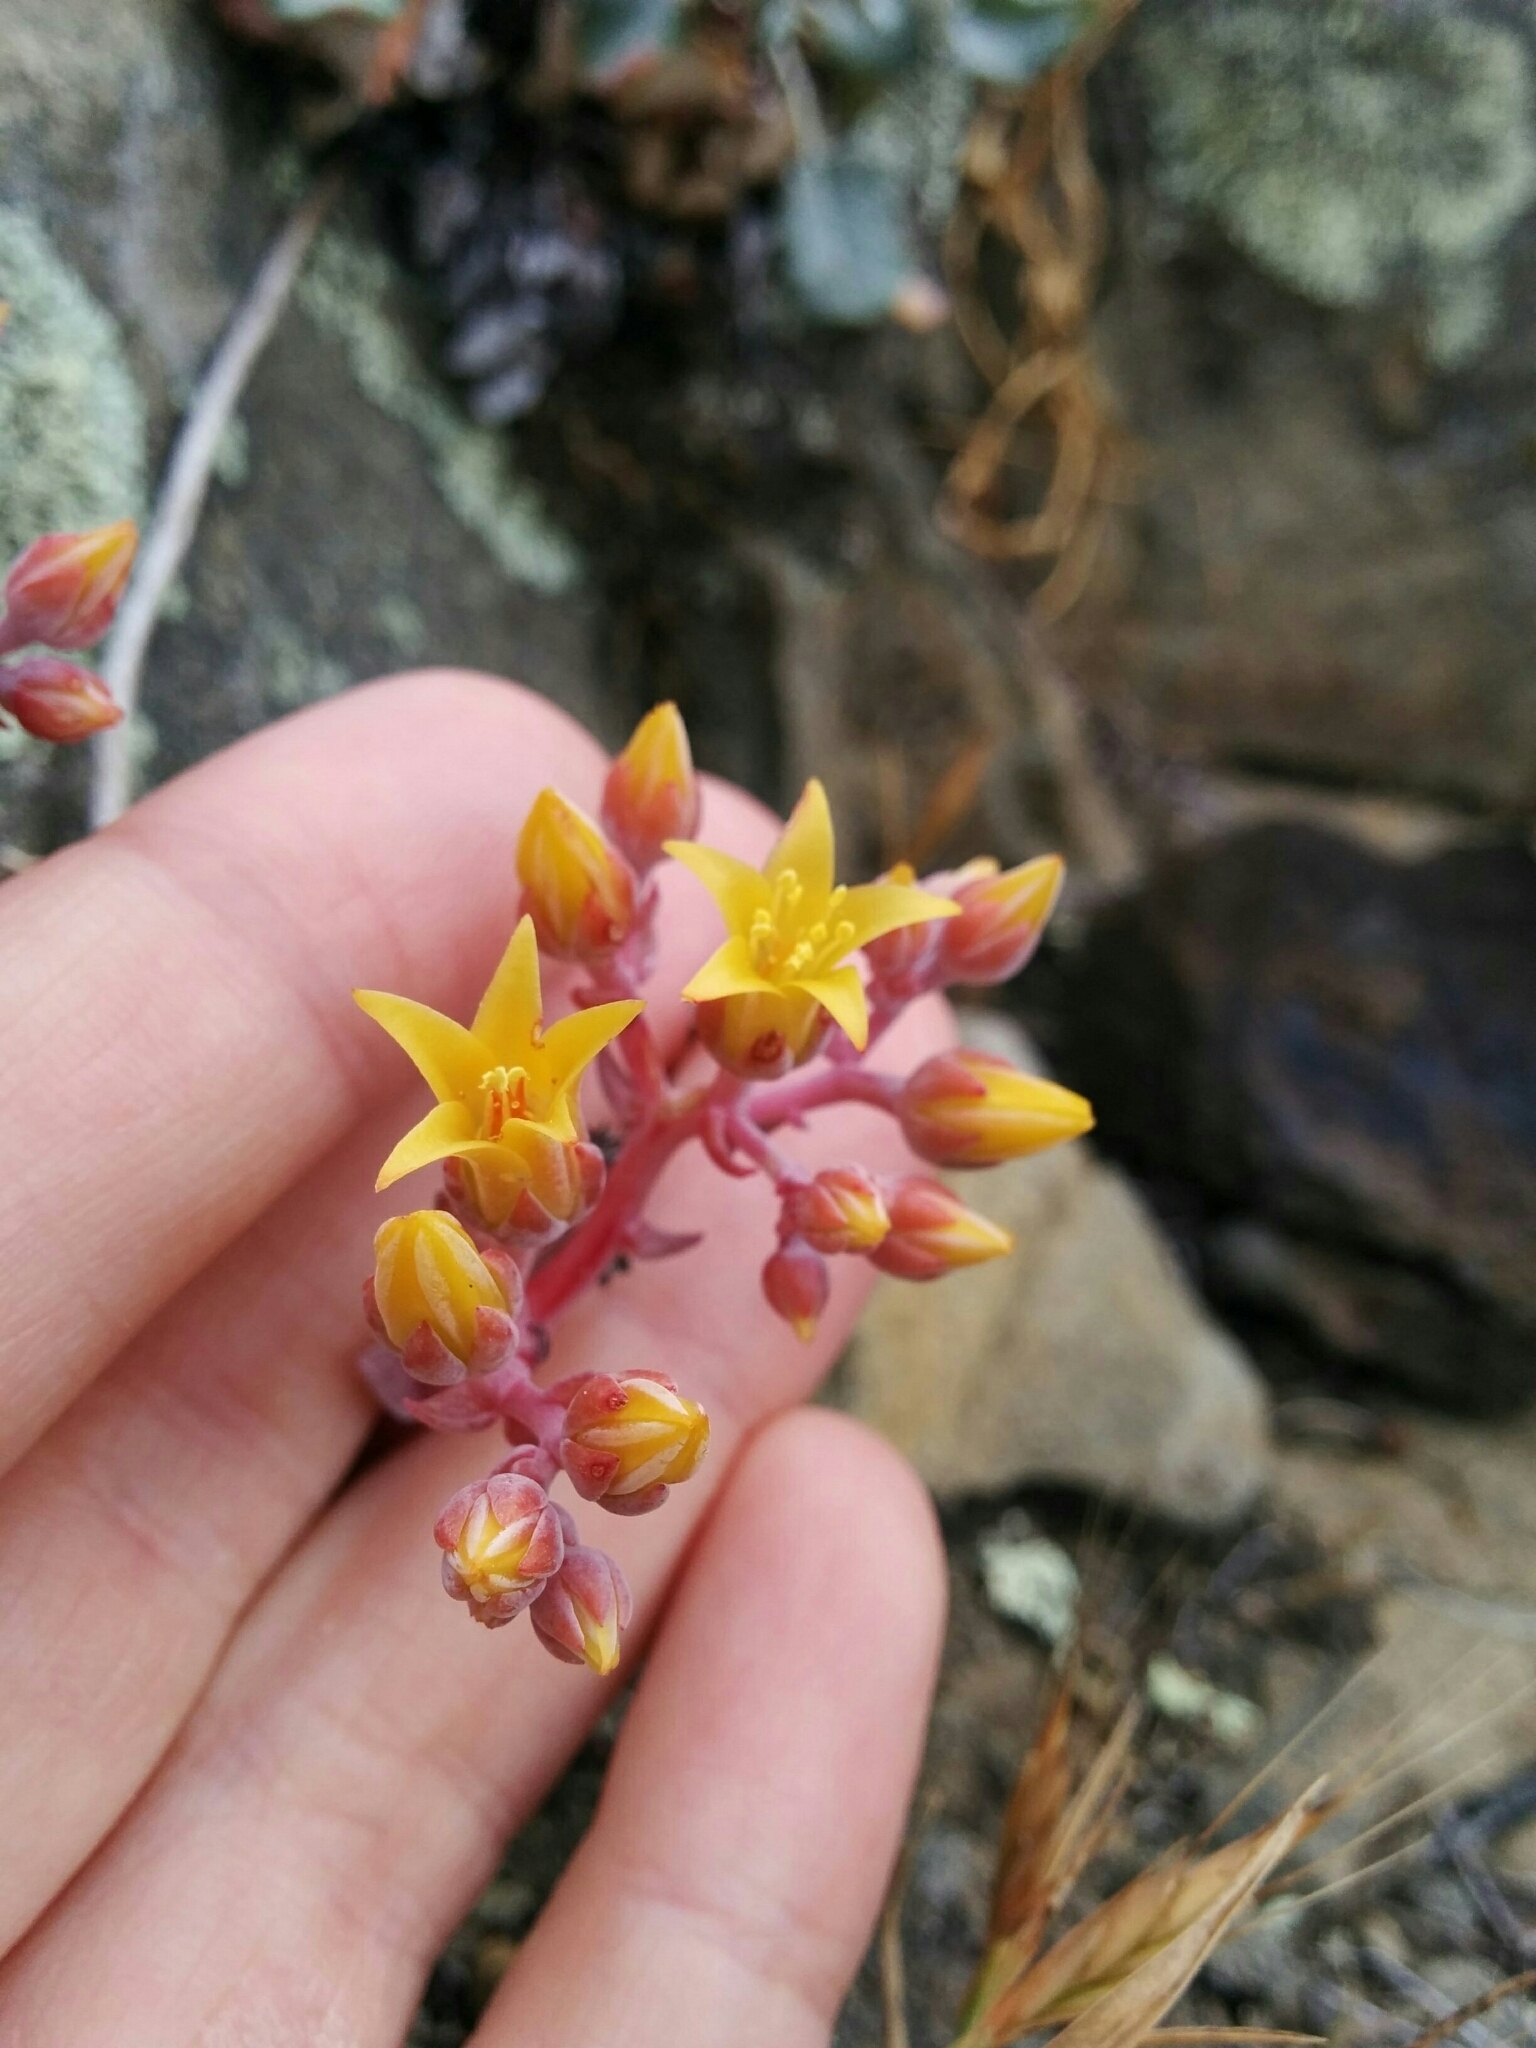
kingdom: Plantae
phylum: Tracheophyta
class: Magnoliopsida
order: Saxifragales
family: Crassulaceae
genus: Dudleya
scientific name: Dudleya cymosa
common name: Canyon dudleya
